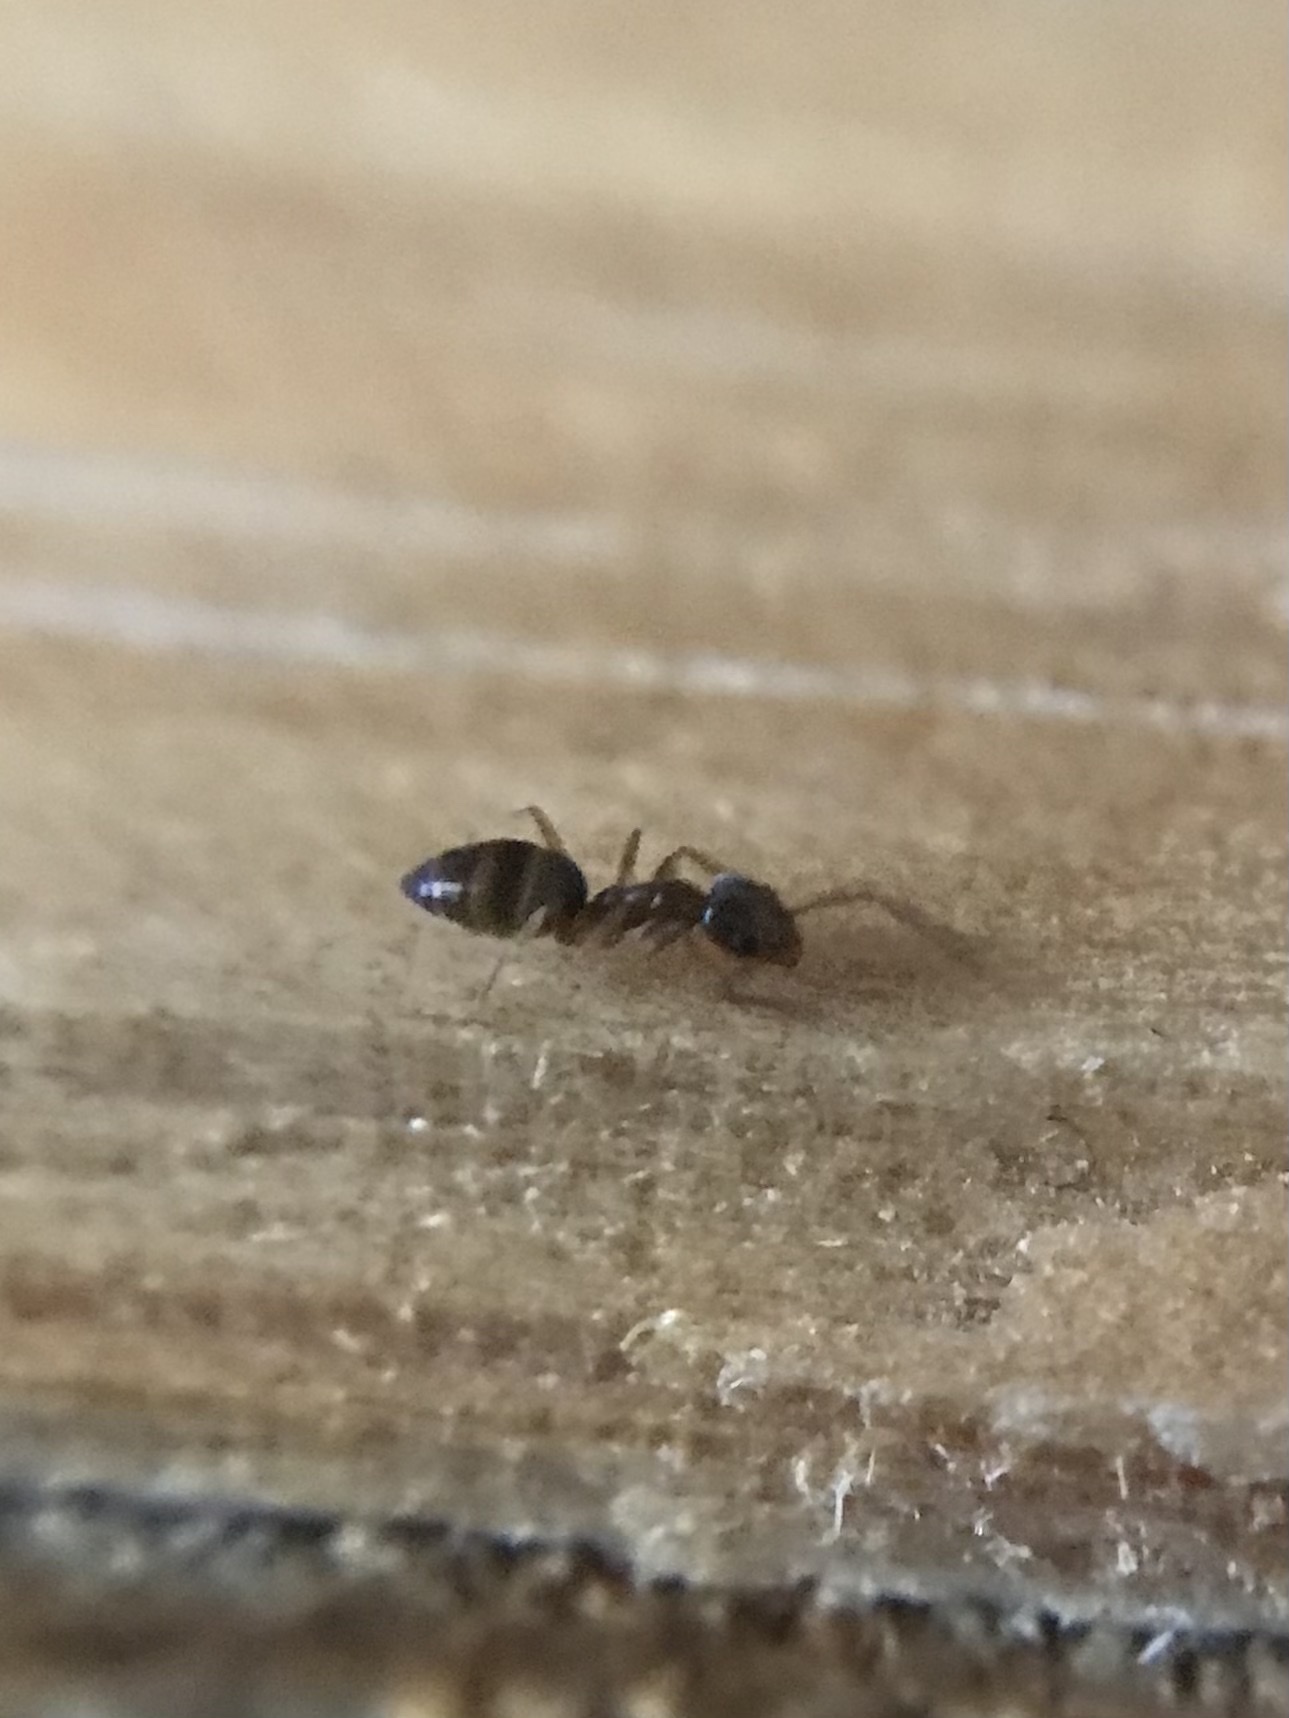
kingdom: Animalia
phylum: Arthropoda
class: Insecta
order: Hymenoptera
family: Formicidae
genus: Tapinoma
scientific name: Tapinoma sessile
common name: Odorous house ant
